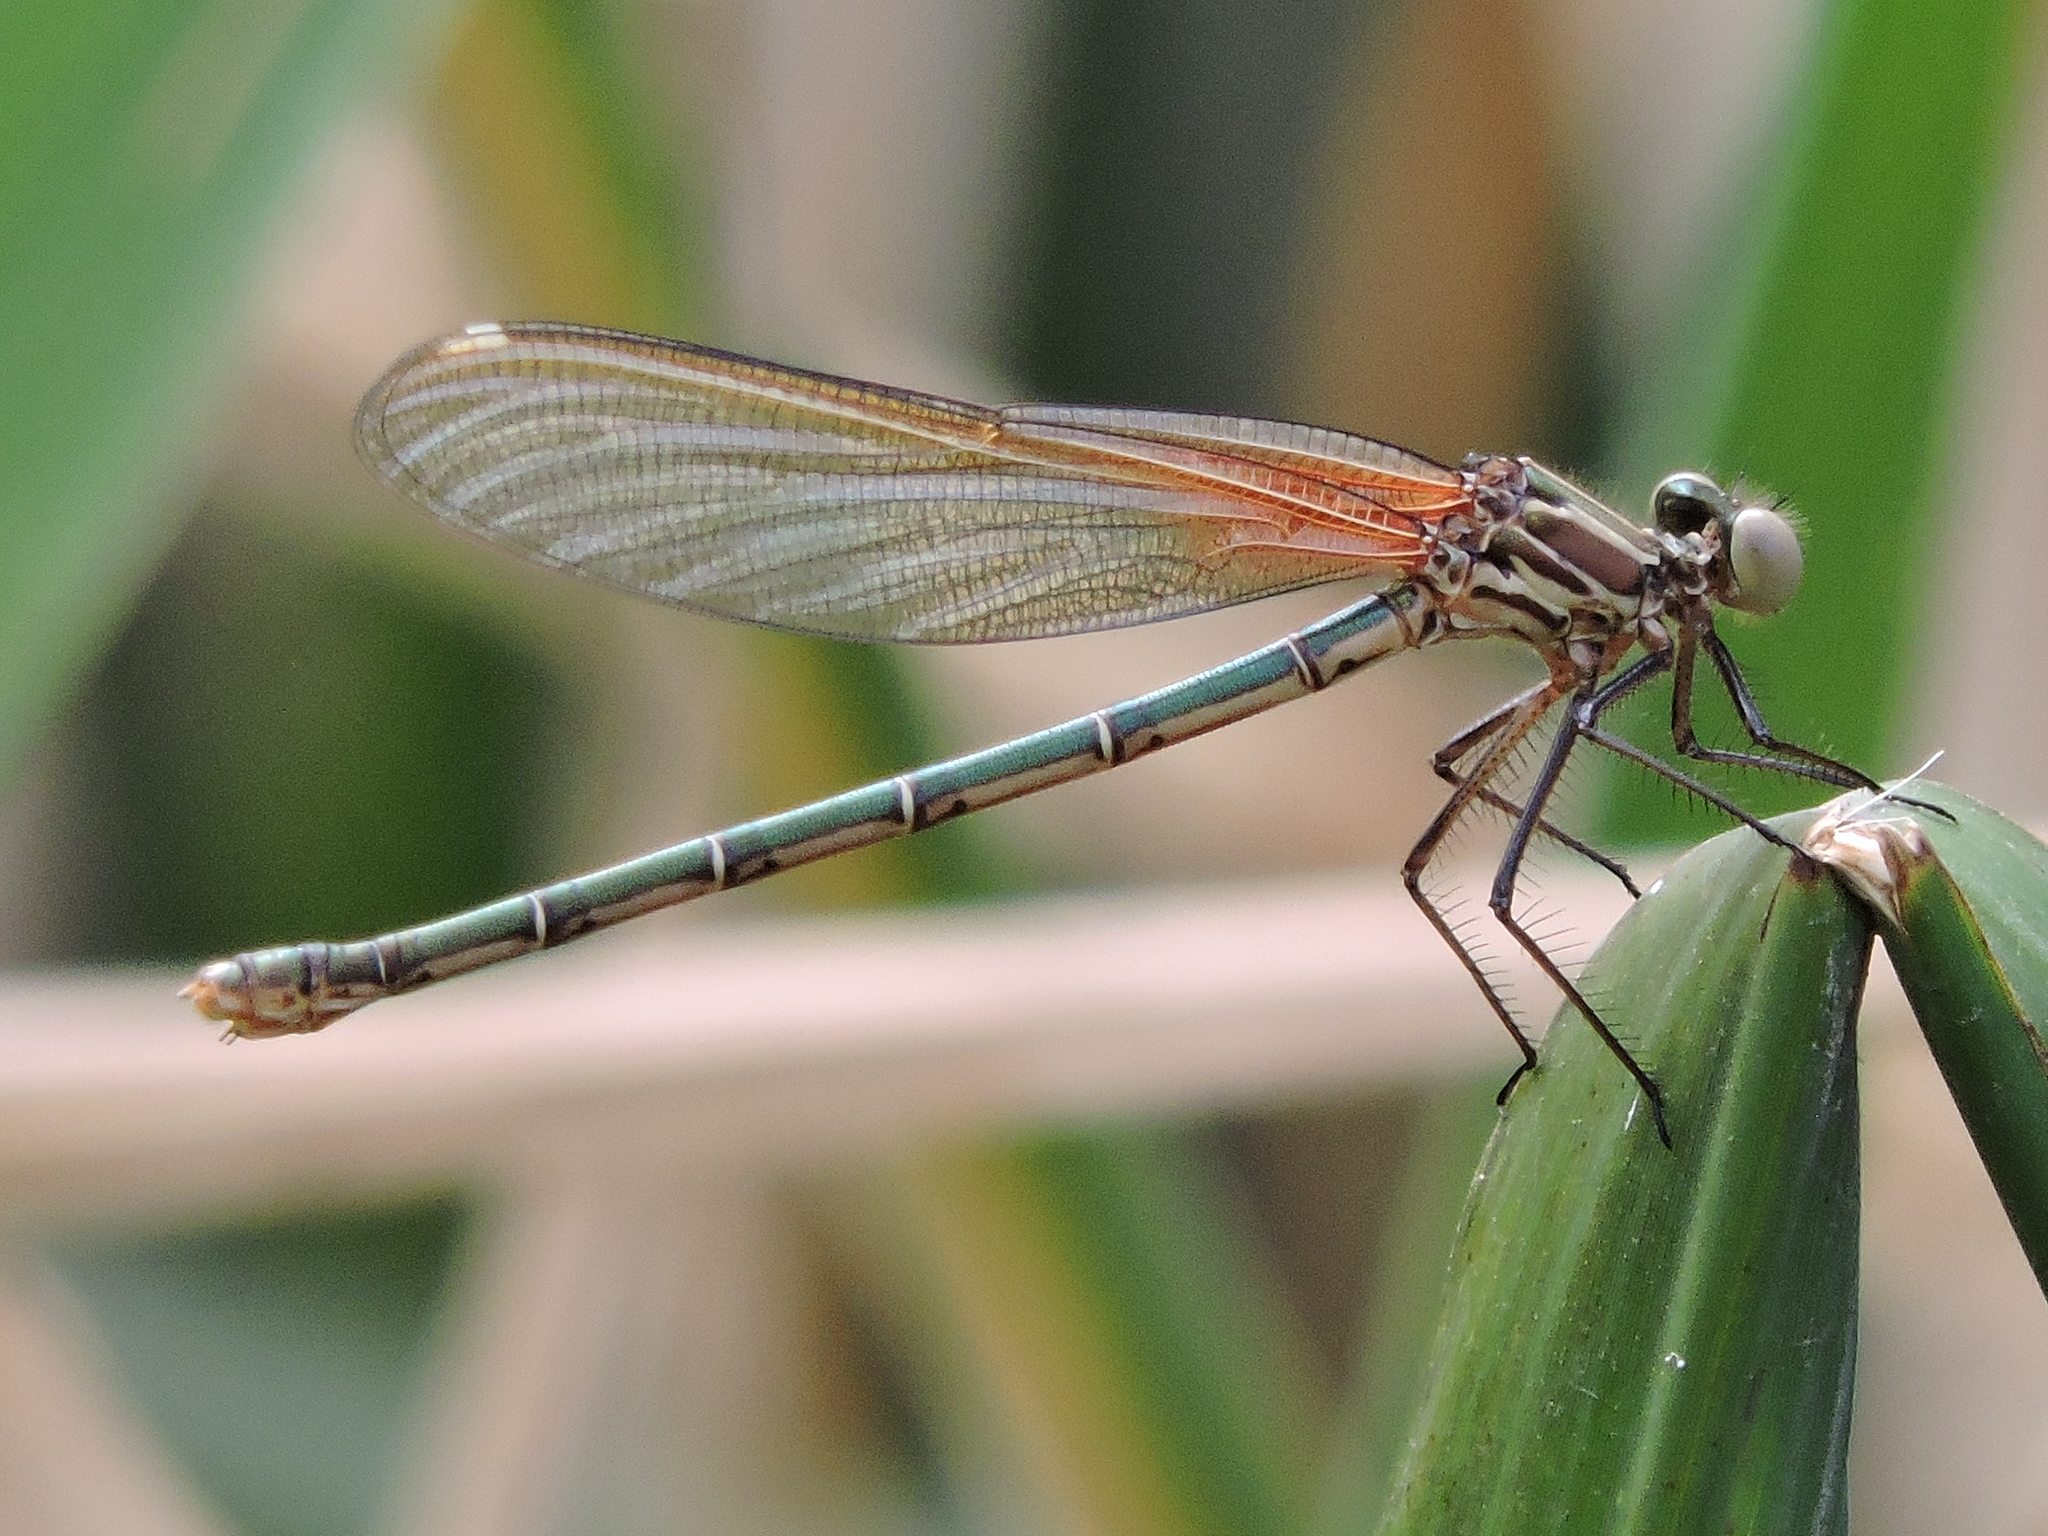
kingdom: Animalia
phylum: Arthropoda
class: Insecta
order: Odonata
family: Calopterygidae
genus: Hetaerina
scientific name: Hetaerina americana
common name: American rubyspot
